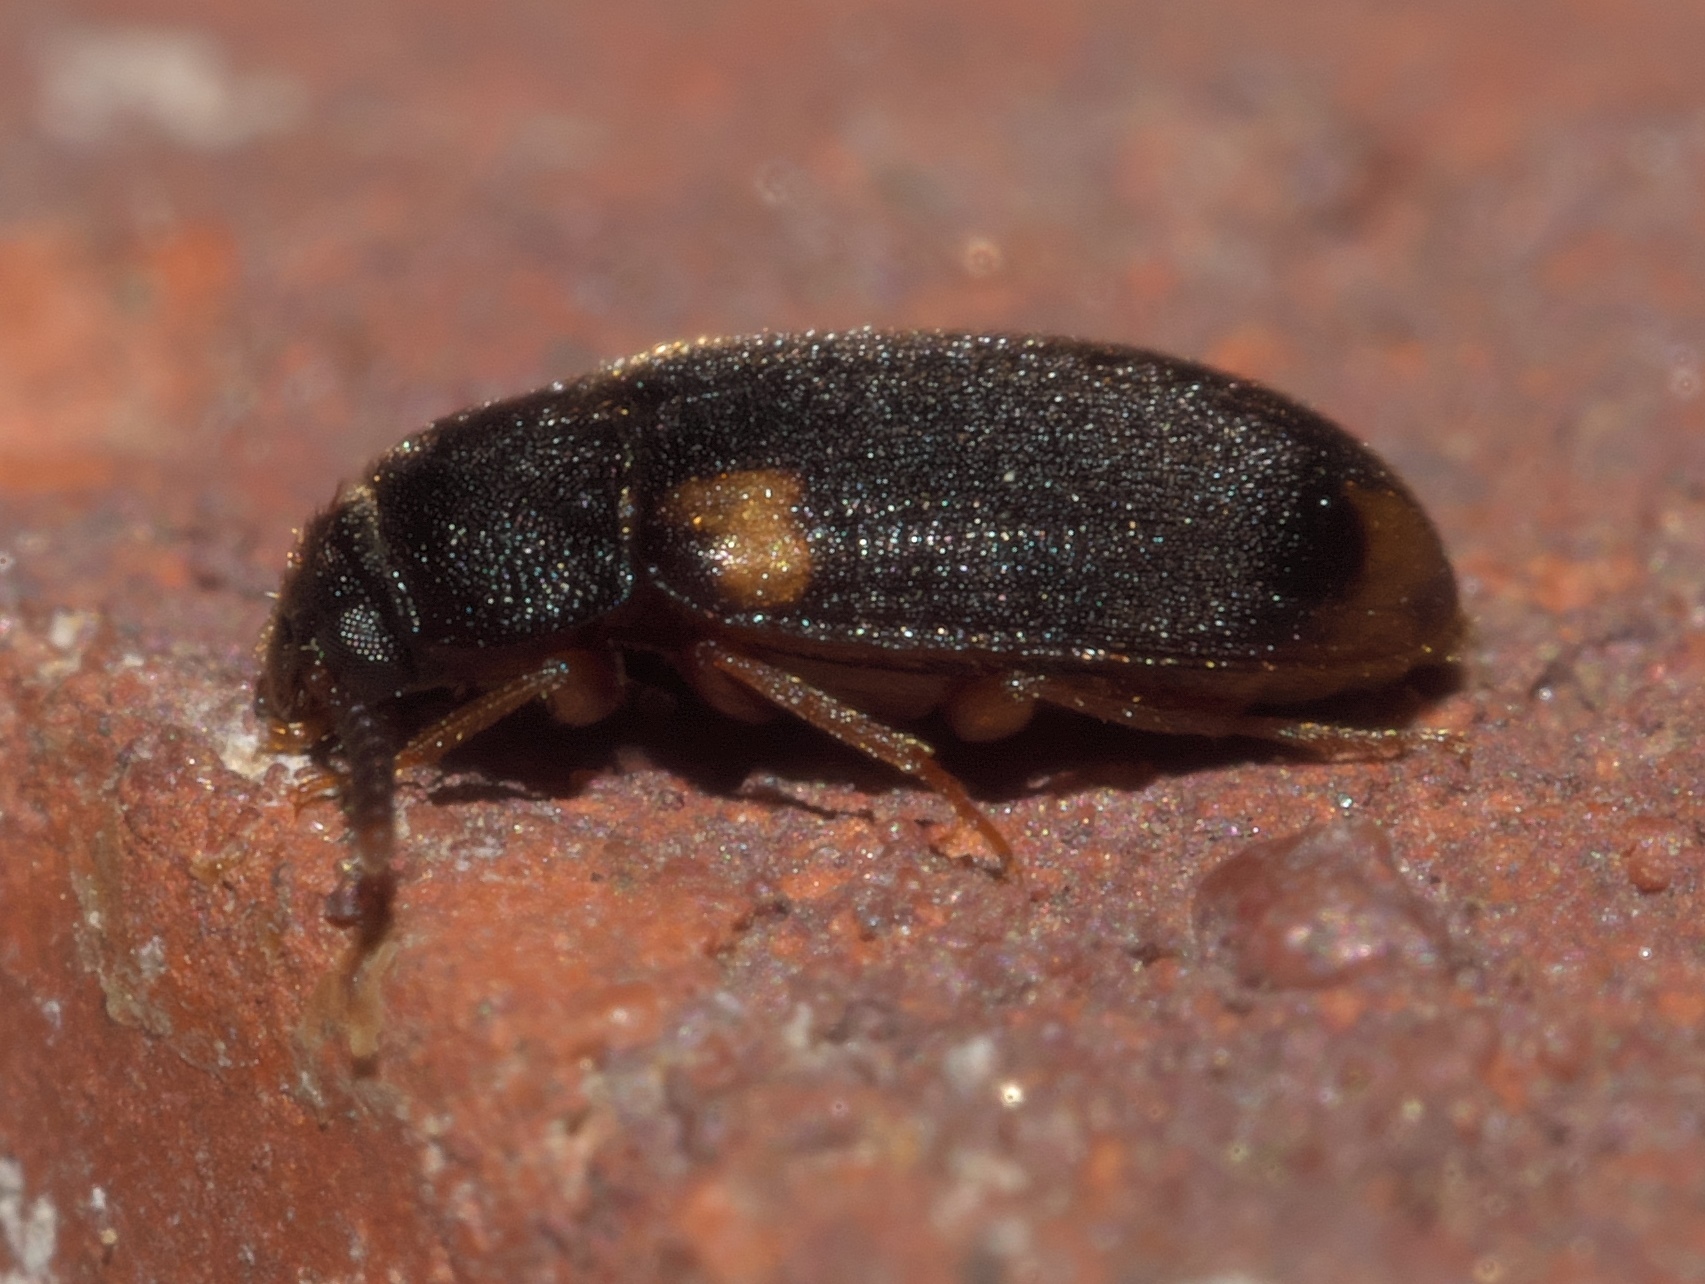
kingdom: Animalia
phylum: Arthropoda
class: Insecta
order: Coleoptera
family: Mycetophagidae
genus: Mycetophagus
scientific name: Mycetophagus serrulatus
